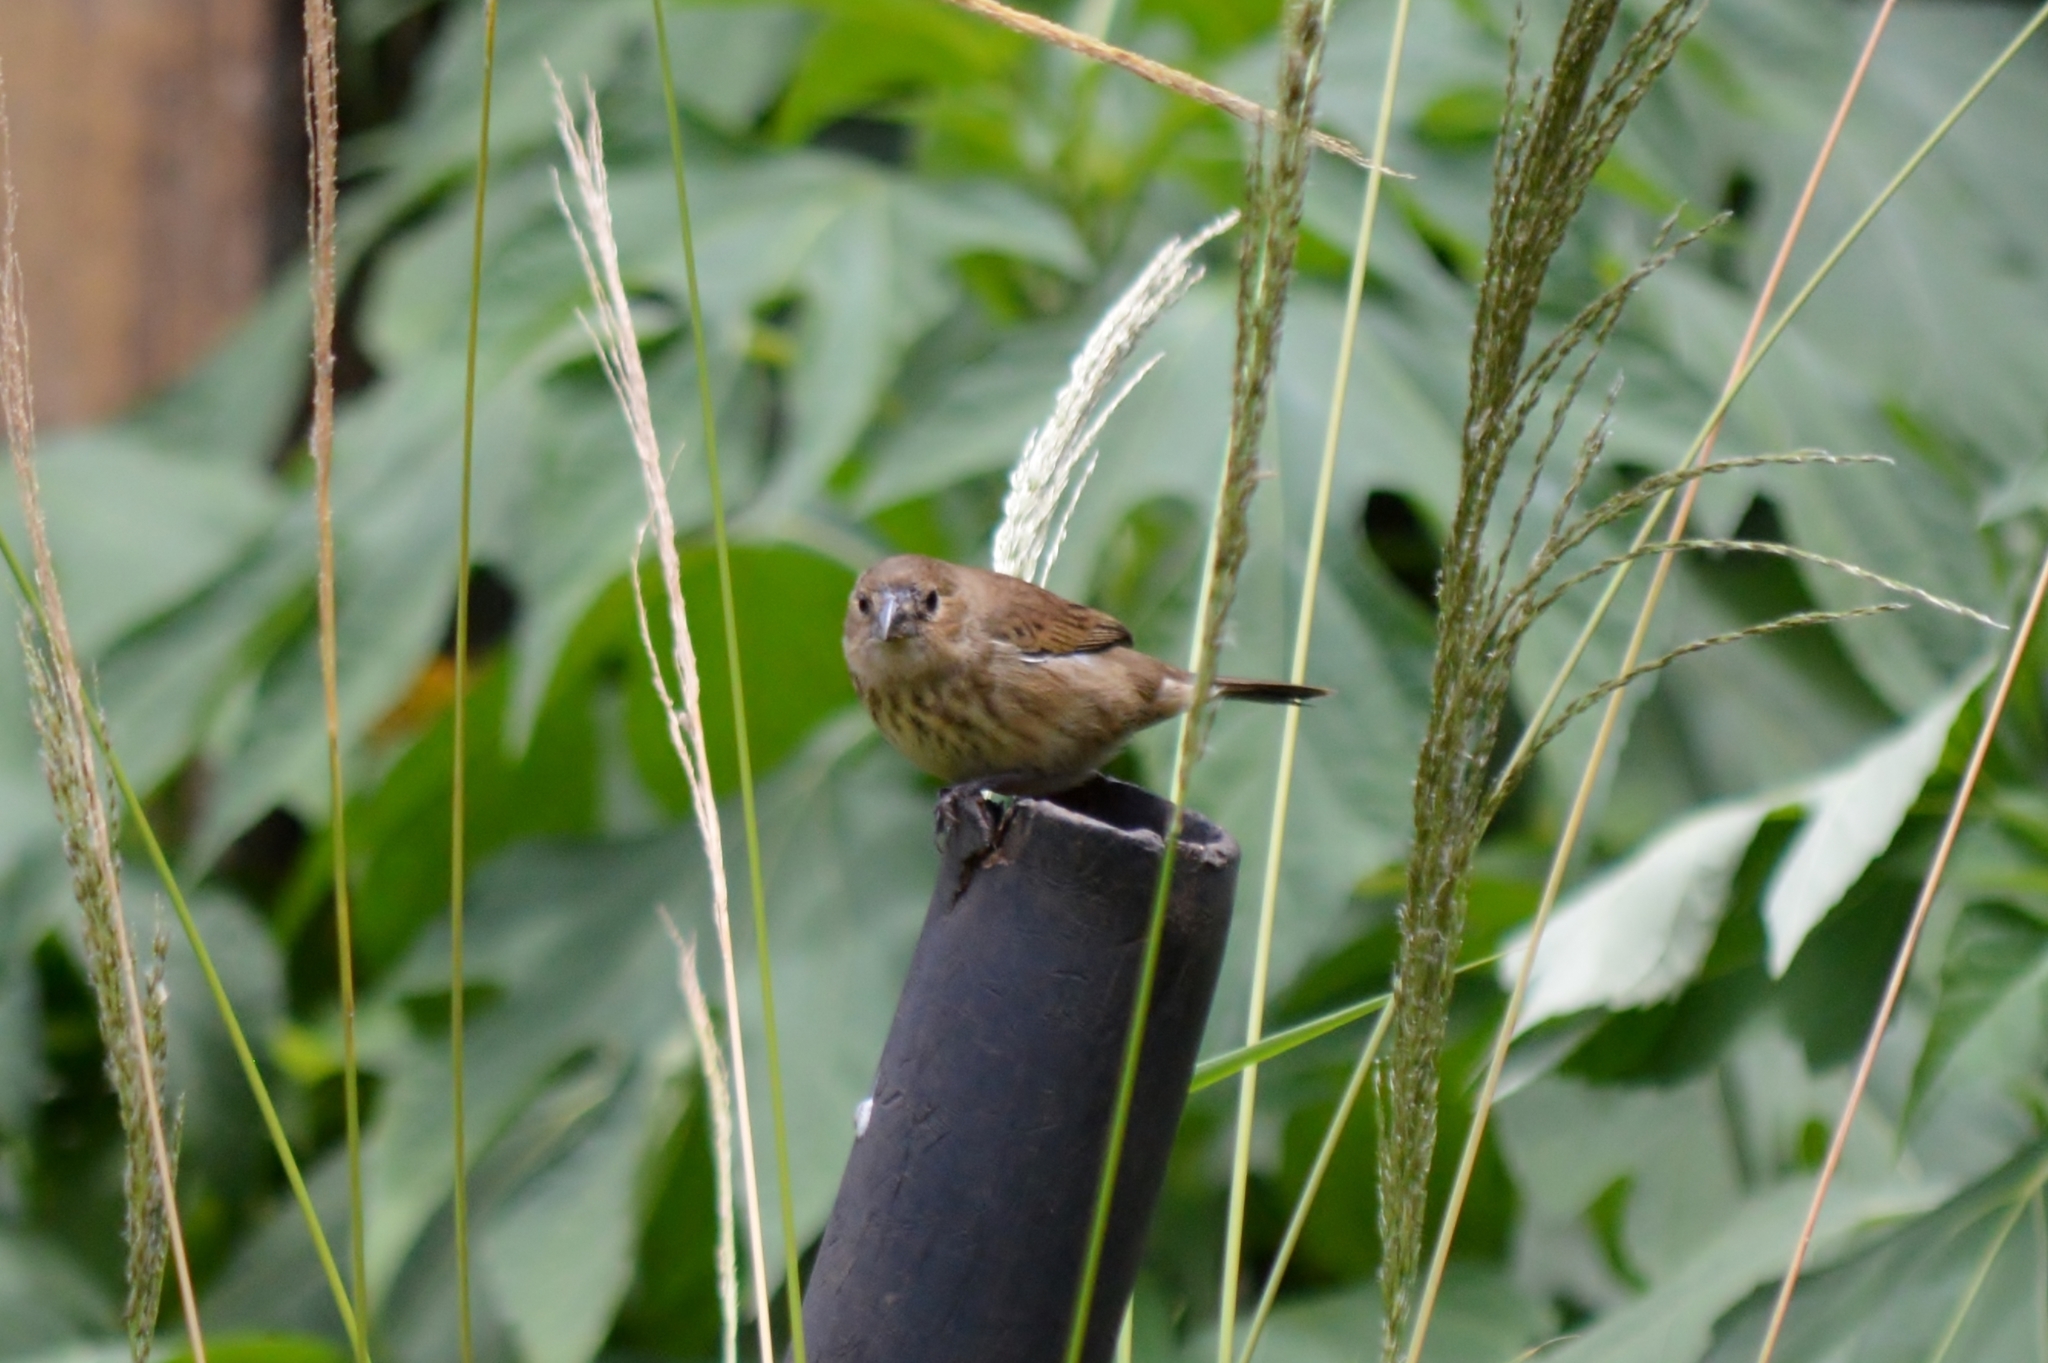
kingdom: Animalia
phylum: Chordata
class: Aves
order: Passeriformes
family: Thraupidae
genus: Volatinia
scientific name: Volatinia jacarina
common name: Blue-black grassquit
